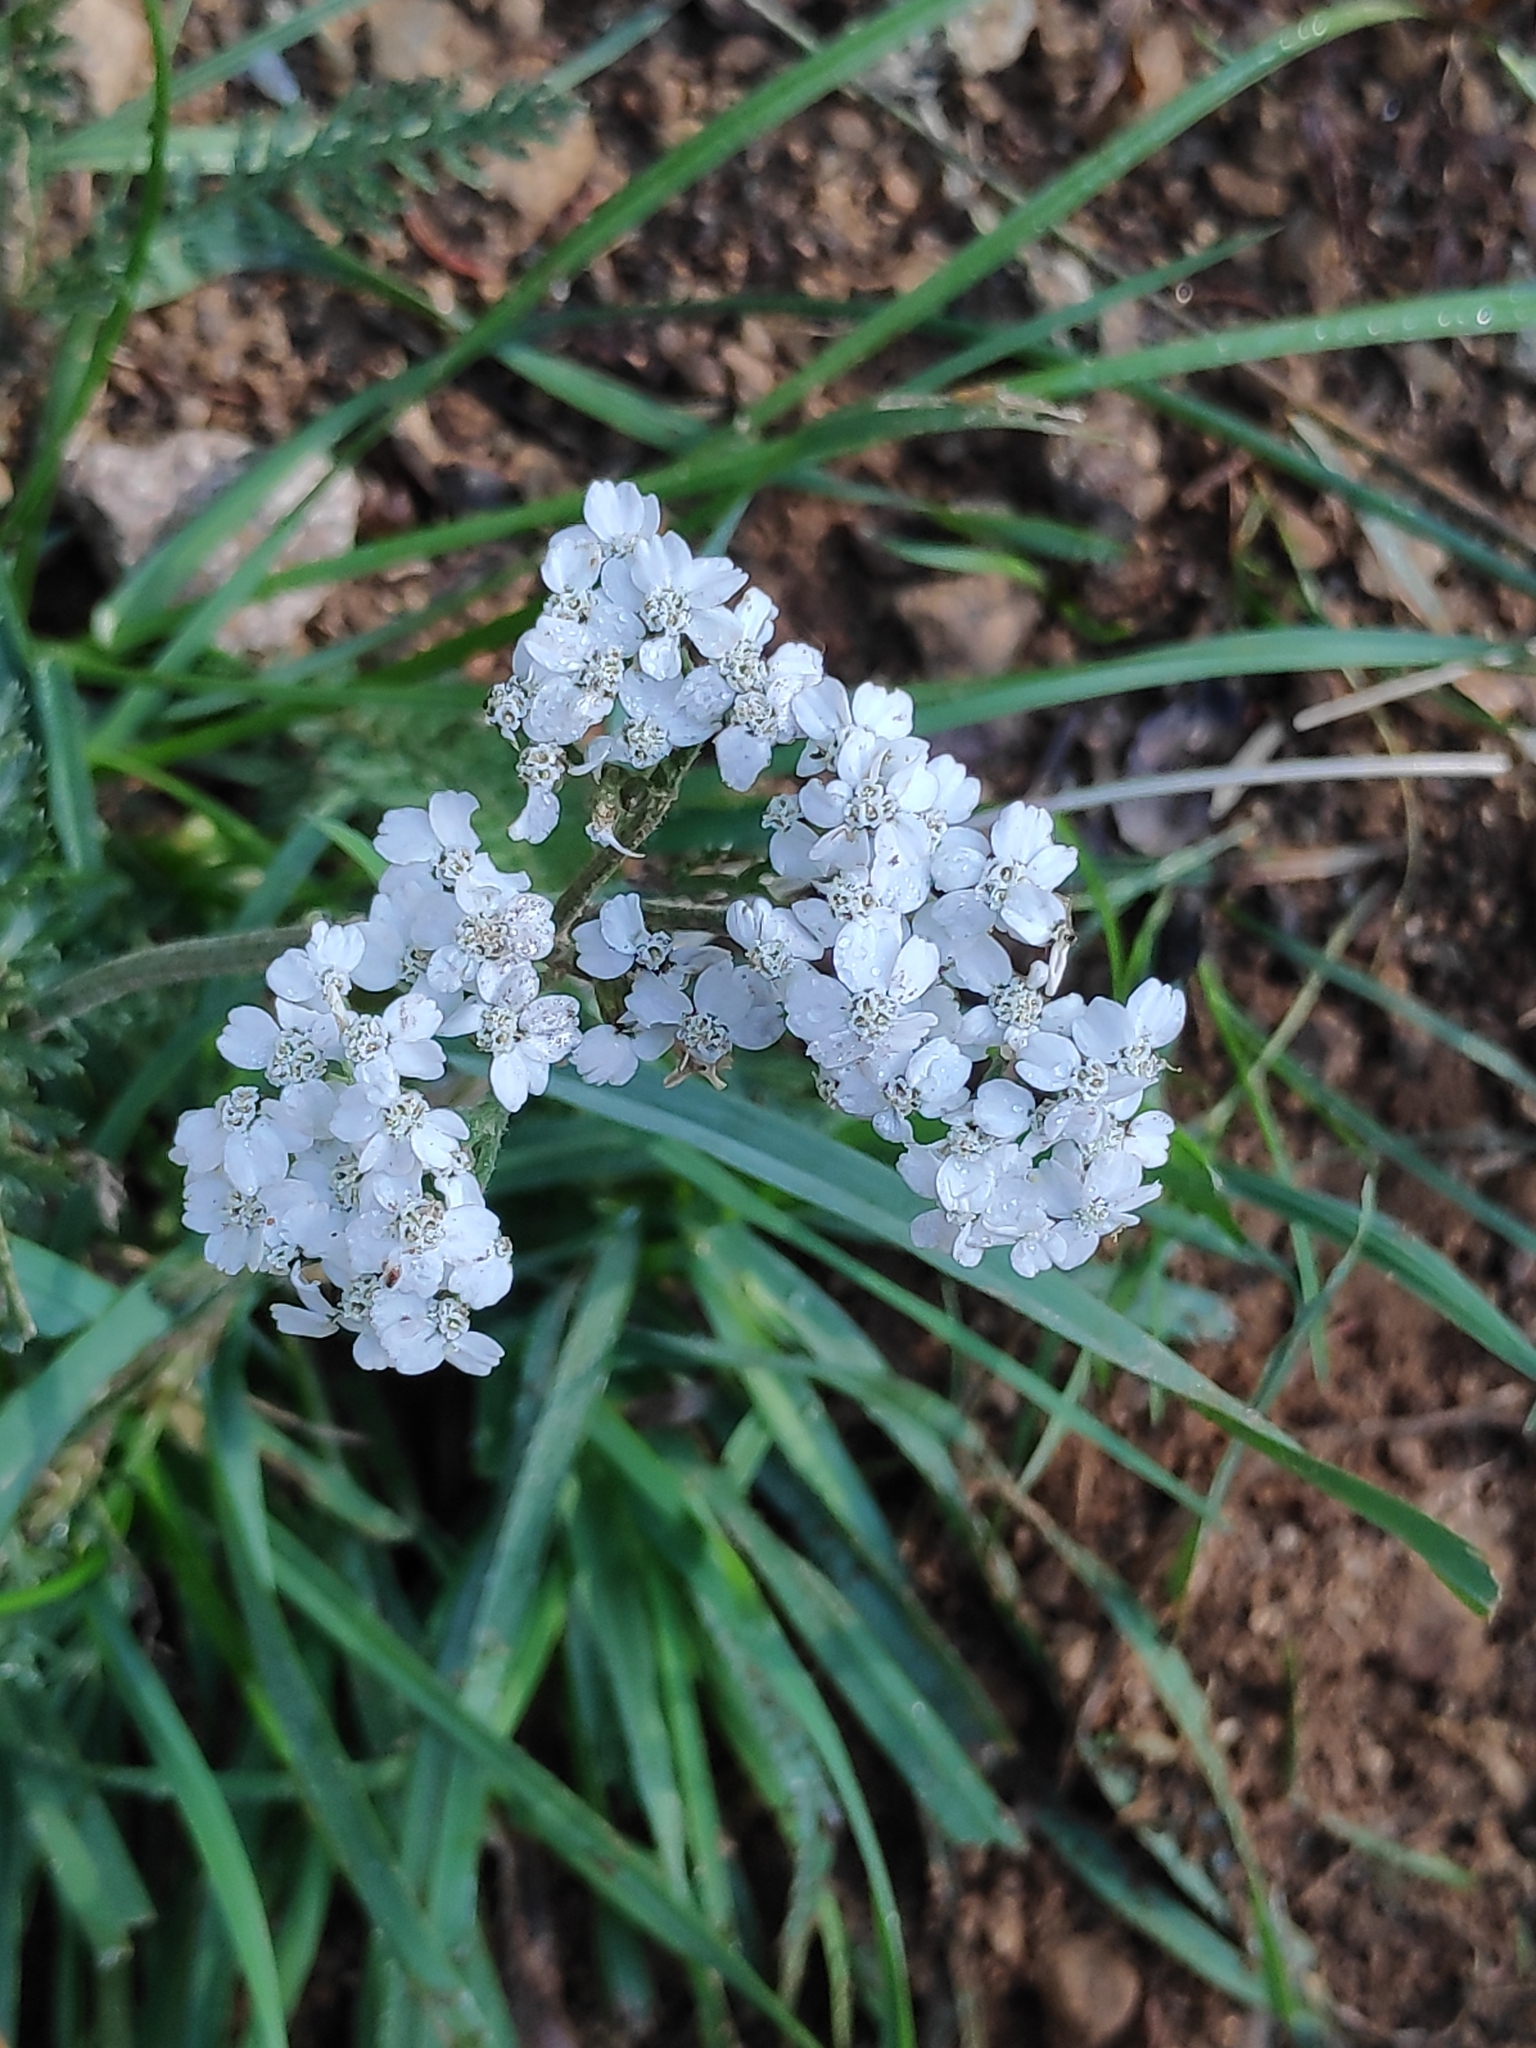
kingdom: Plantae
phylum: Tracheophyta
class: Magnoliopsida
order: Asterales
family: Asteraceae
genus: Achillea
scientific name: Achillea millefolium
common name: Yarrow
